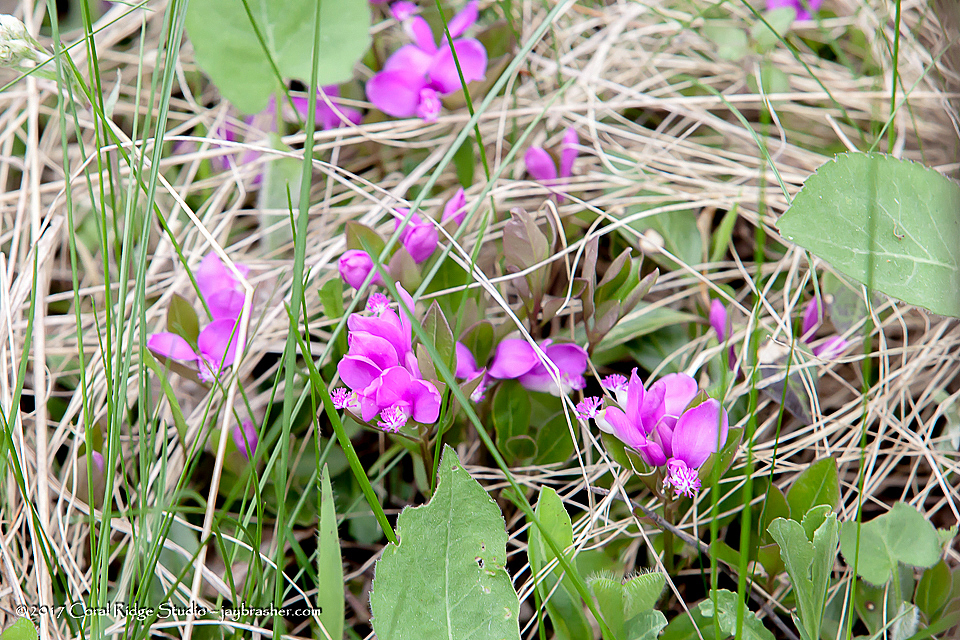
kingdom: Plantae
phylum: Tracheophyta
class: Magnoliopsida
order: Fabales
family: Polygalaceae
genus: Polygaloides
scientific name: Polygaloides paucifolia
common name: Bird-on-the-wing
